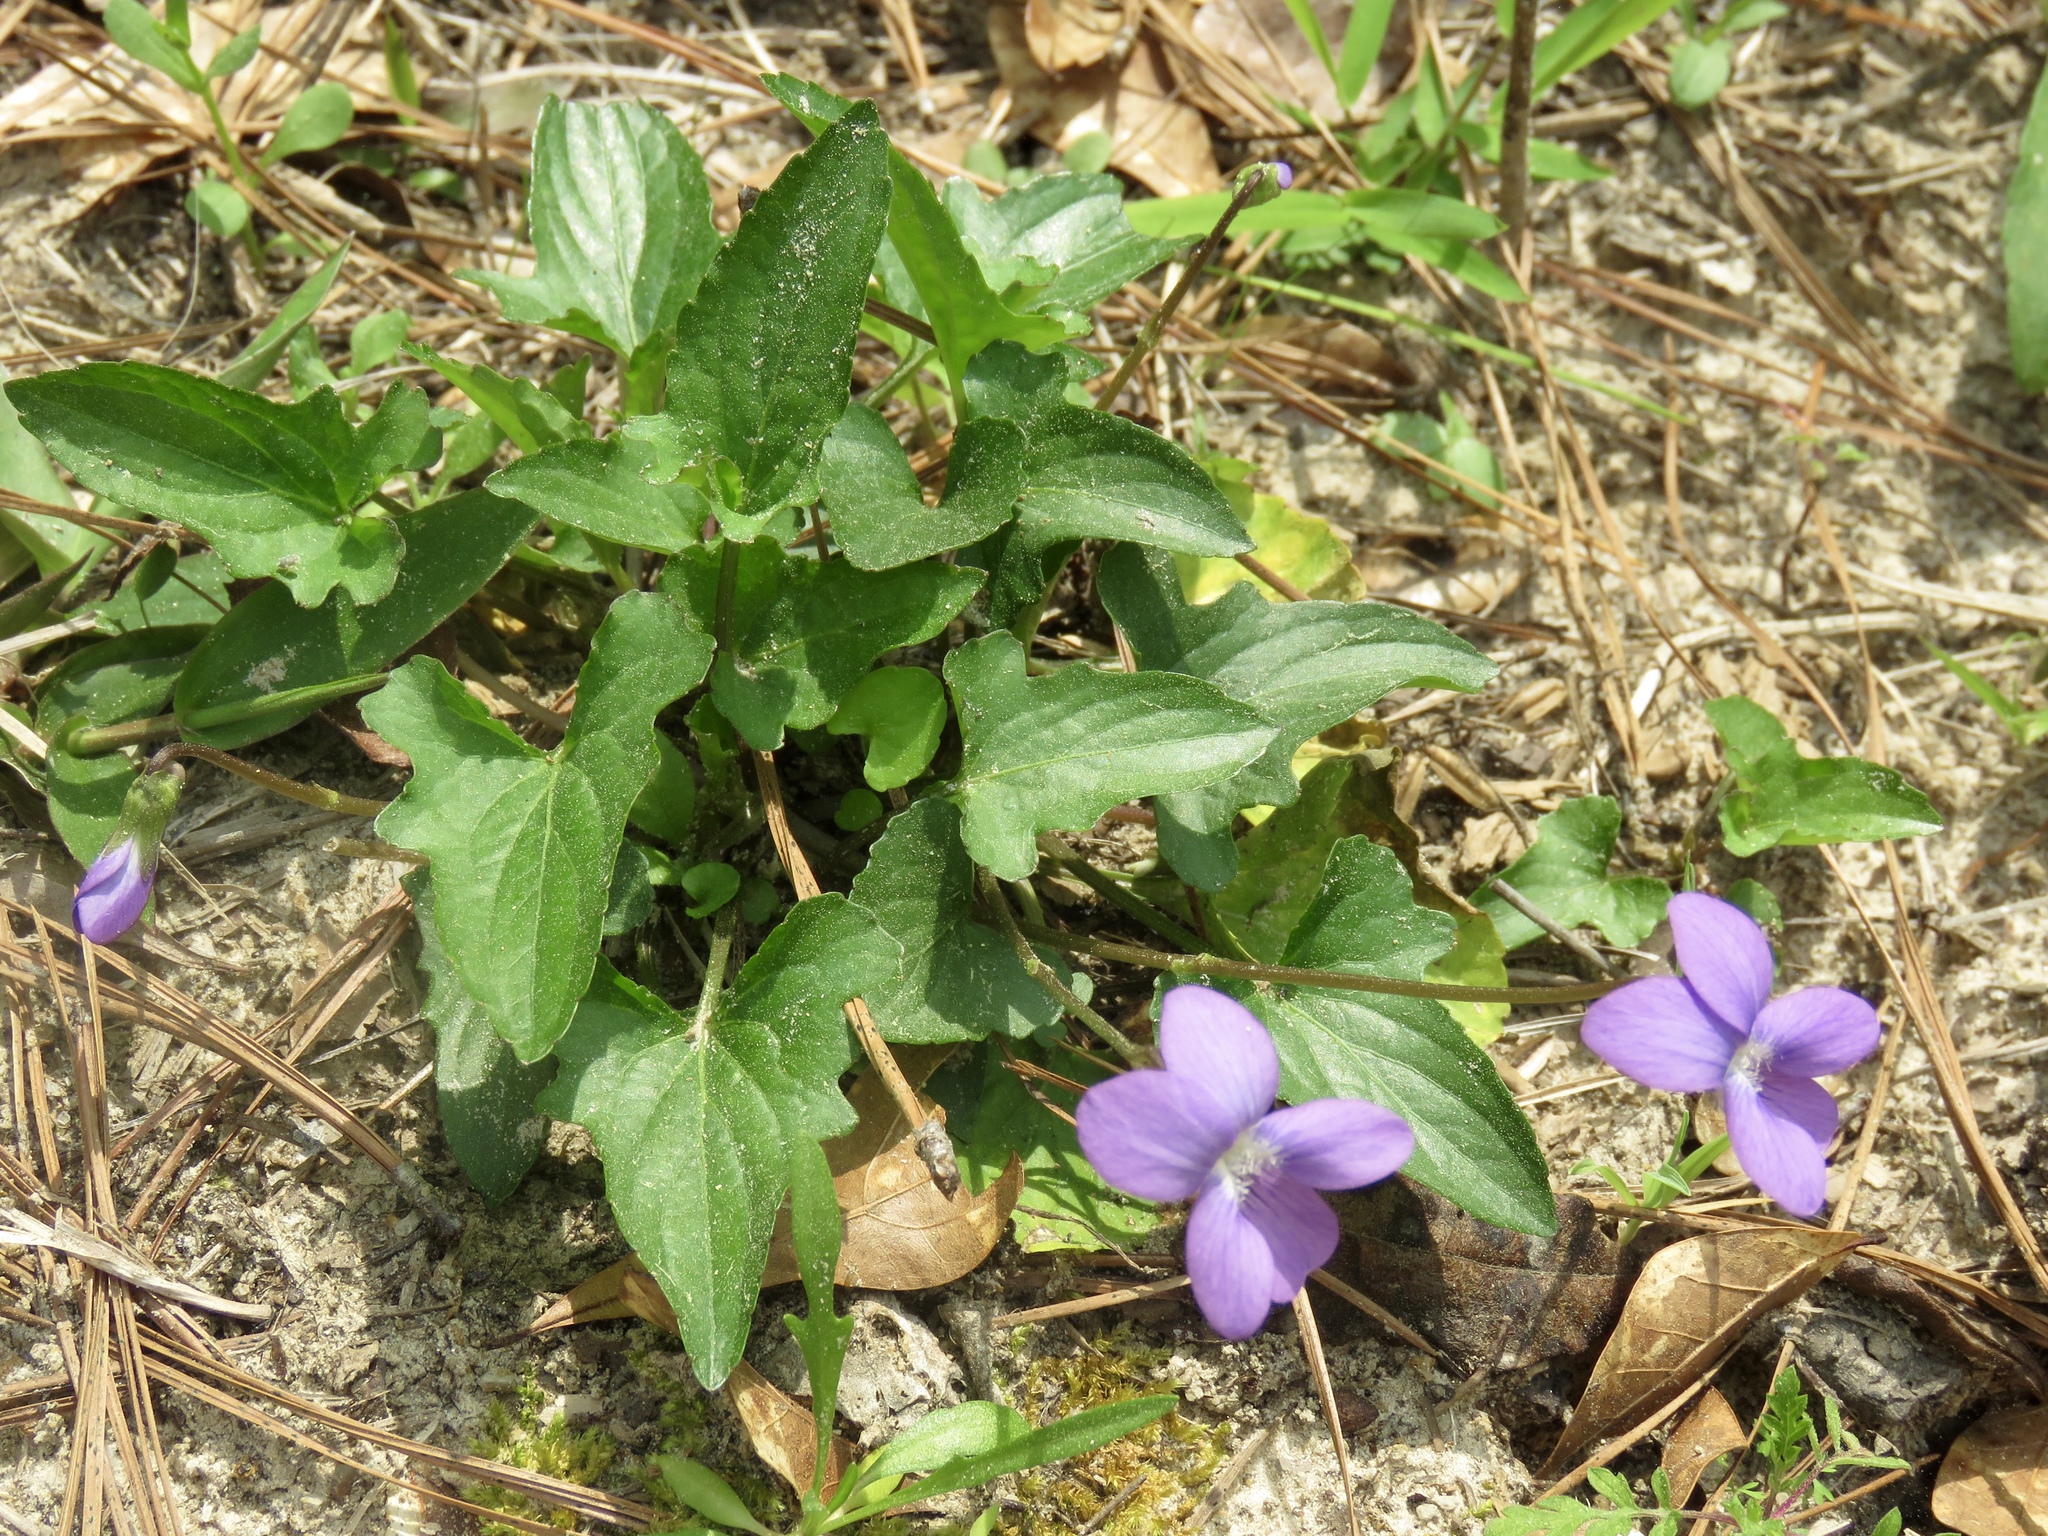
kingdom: Plantae
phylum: Tracheophyta
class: Magnoliopsida
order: Malpighiales
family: Violaceae
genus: Viola
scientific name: Viola palmata
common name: Early blue violet
